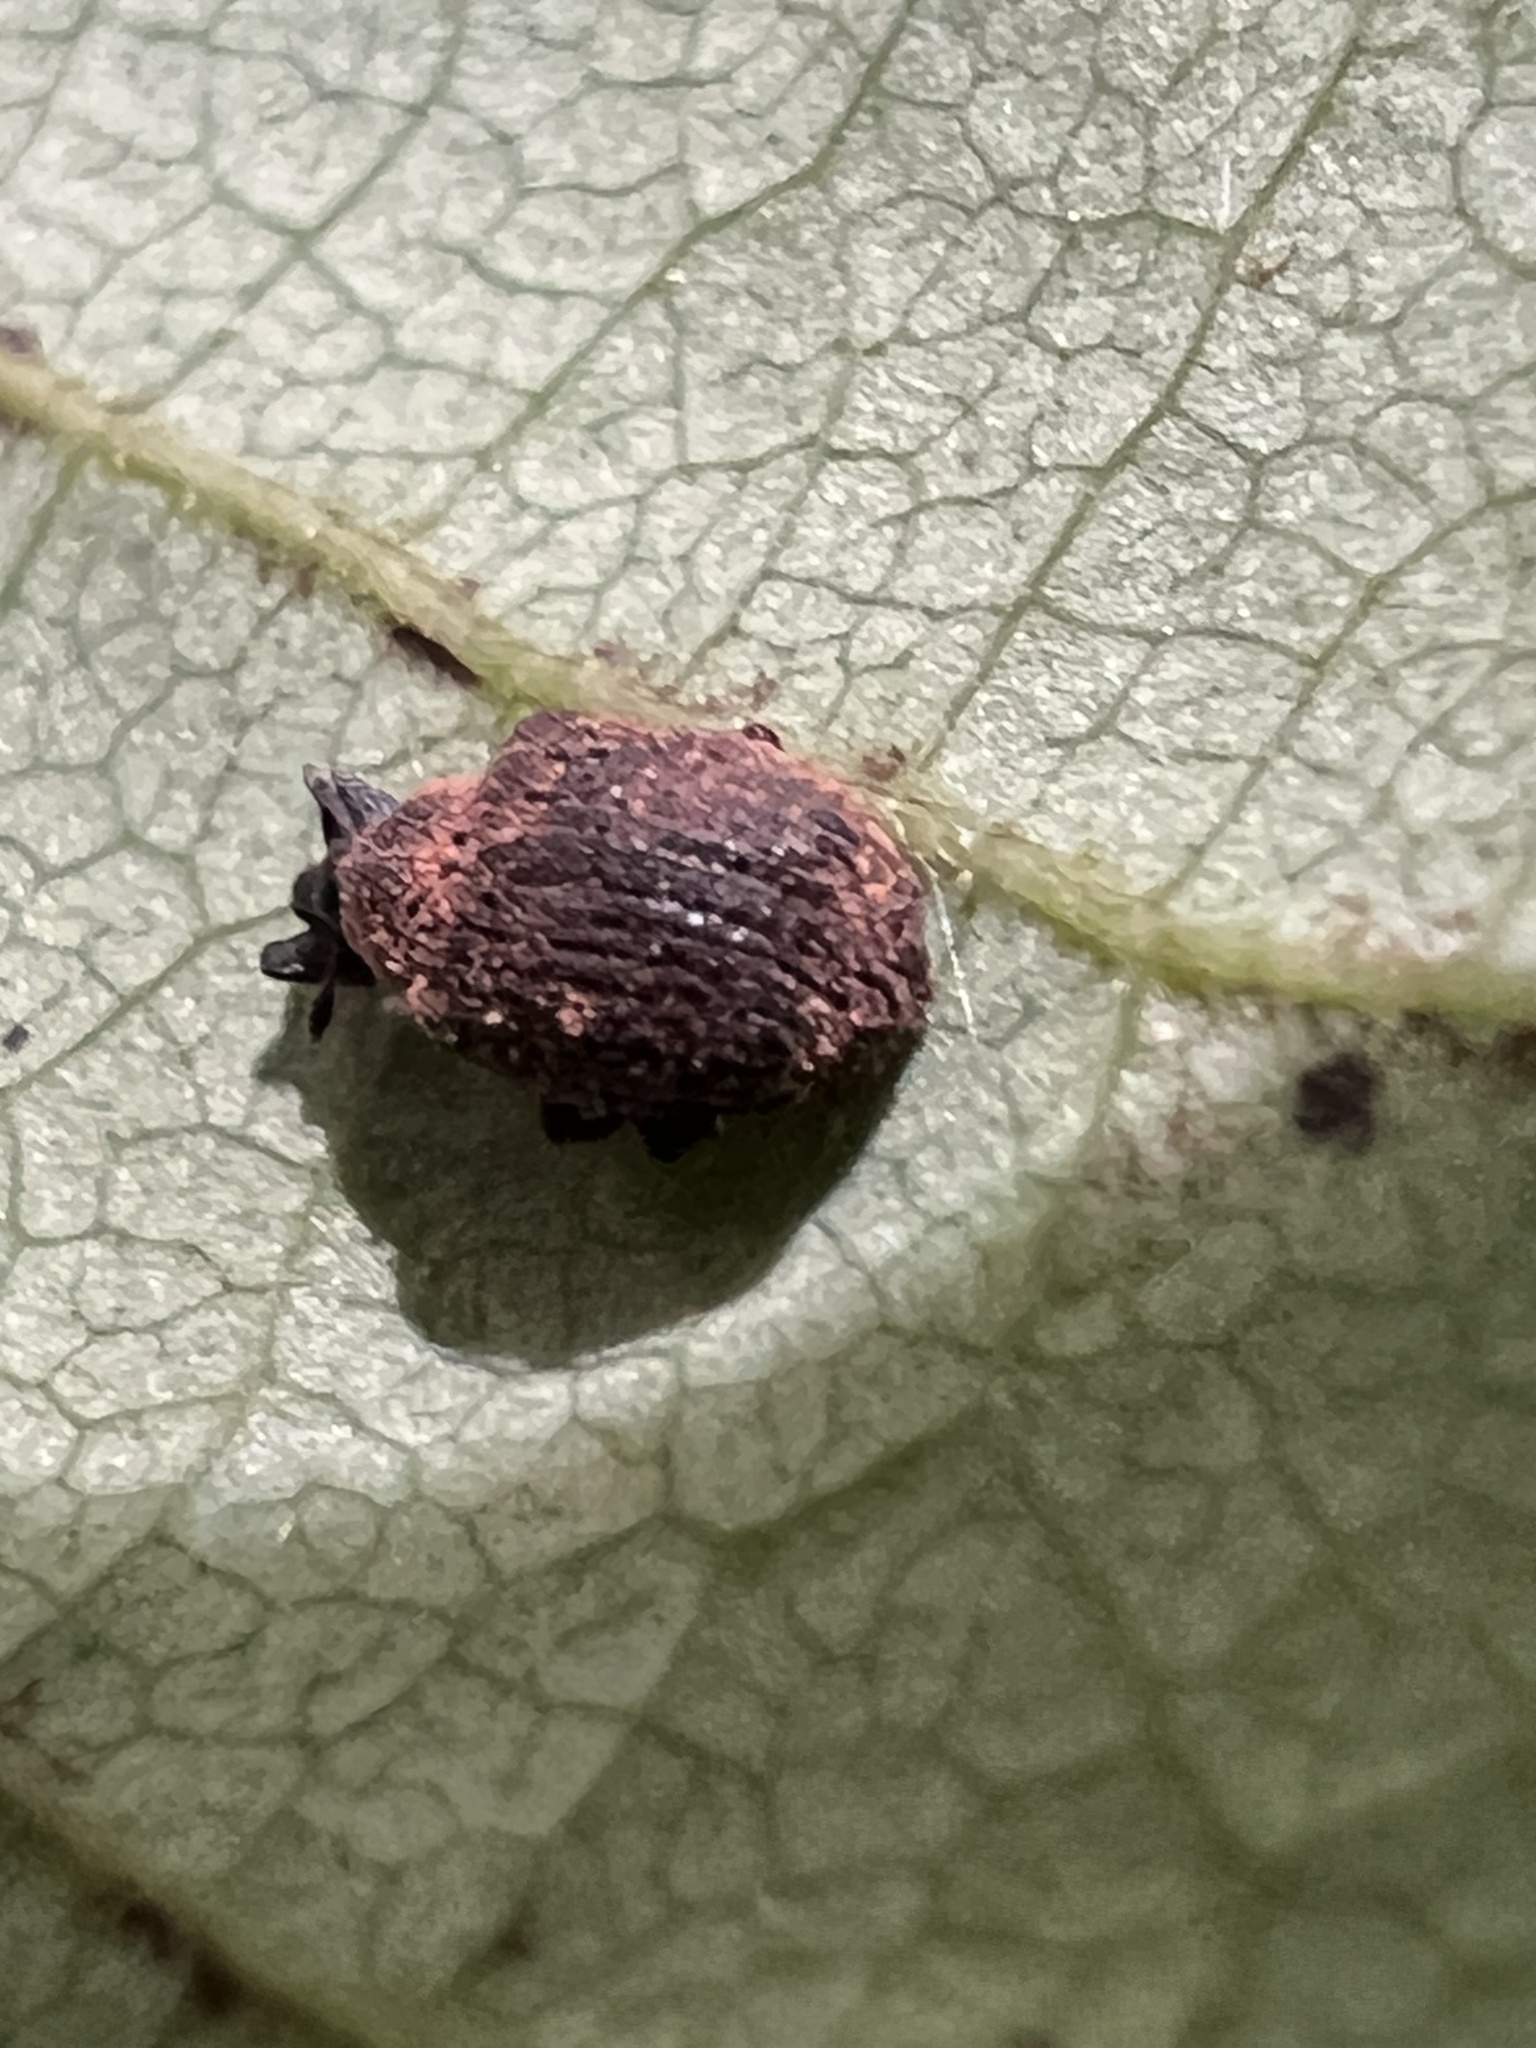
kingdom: Animalia
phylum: Arthropoda
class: Insecta
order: Coleoptera
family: Curculionidae
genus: Odontopus
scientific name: Odontopus calceatus
